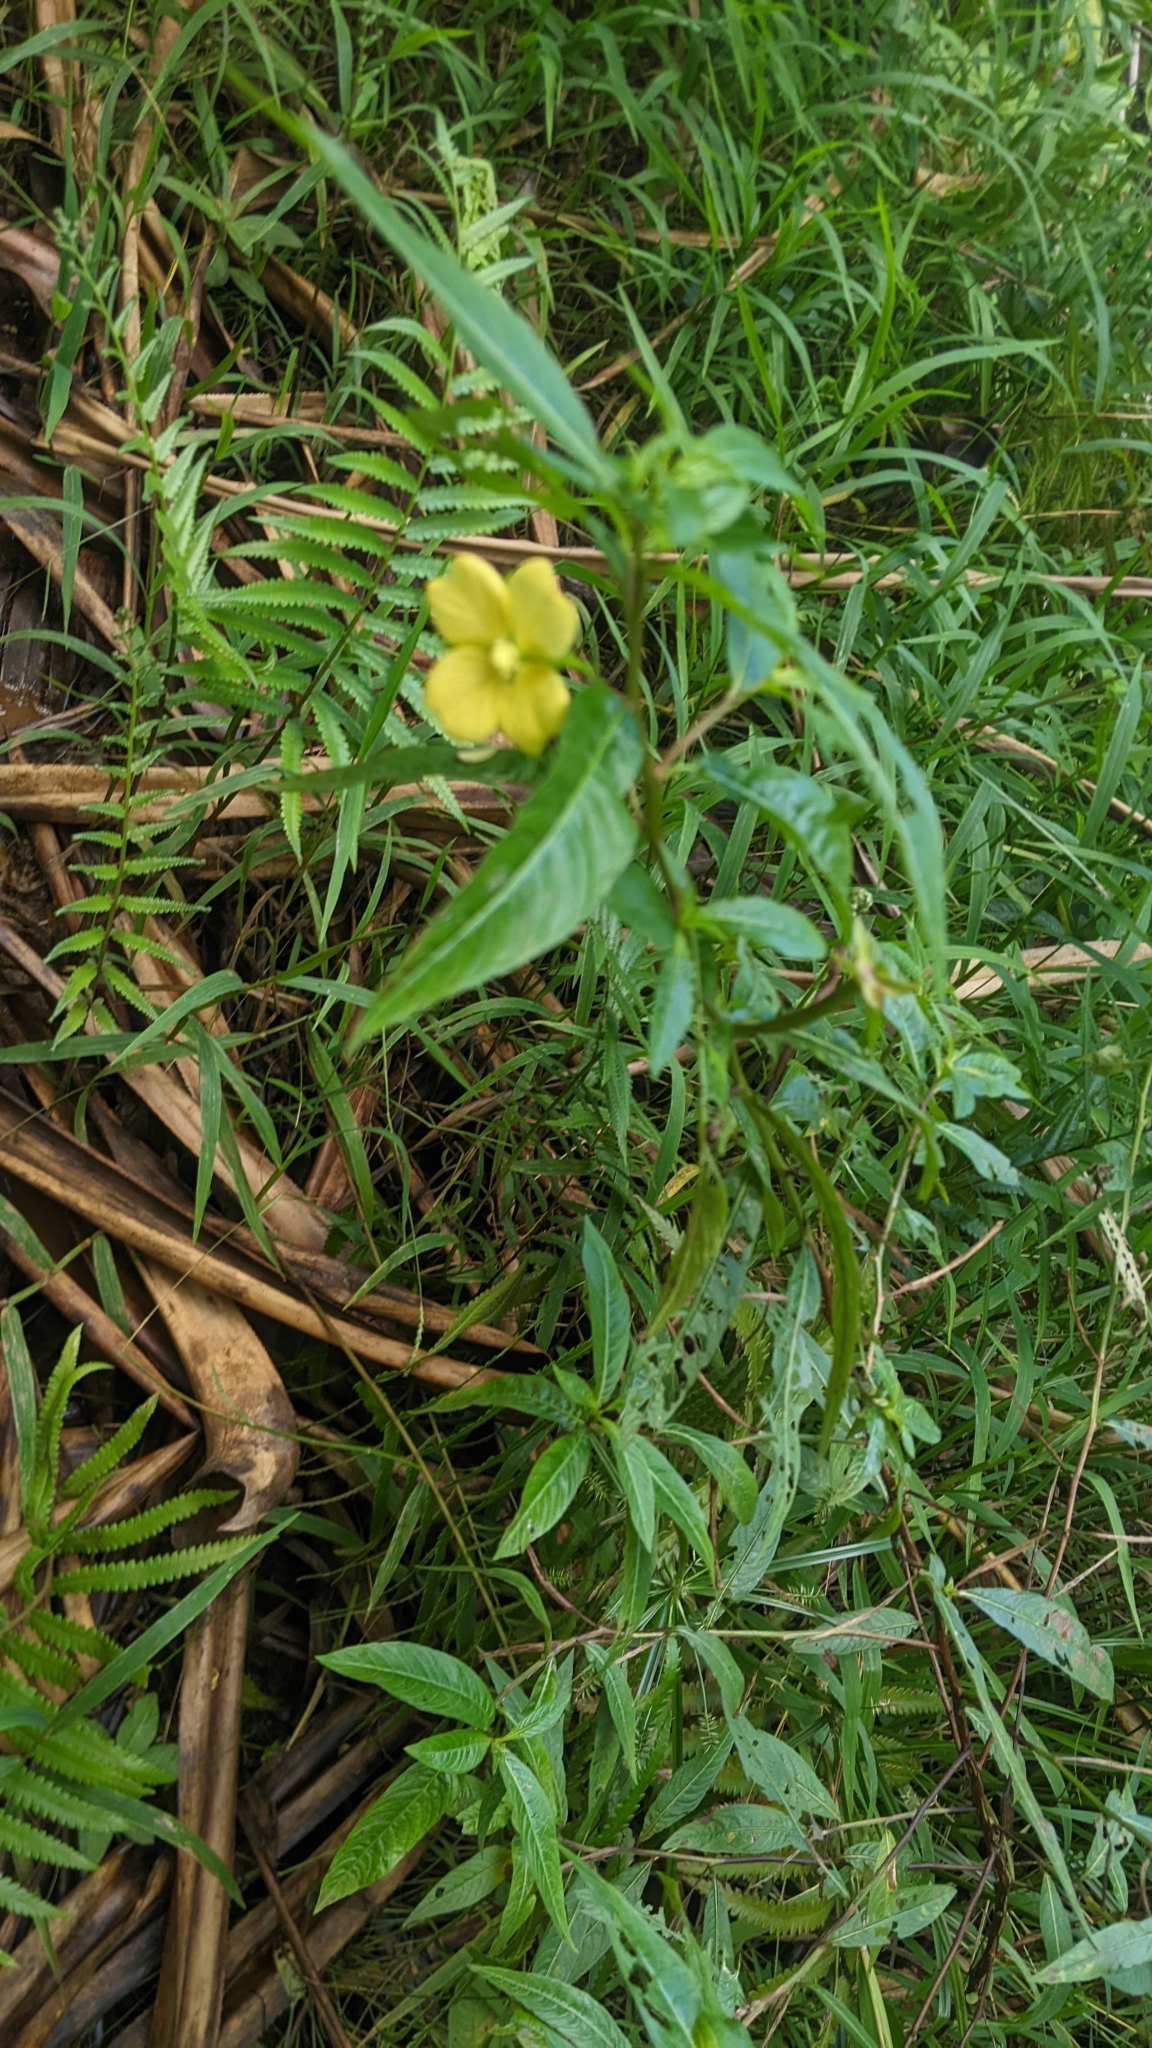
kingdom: Plantae
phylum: Tracheophyta
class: Magnoliopsida
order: Myrtales
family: Onagraceae
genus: Ludwigia
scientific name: Ludwigia octovalvis
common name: Water-primrose
